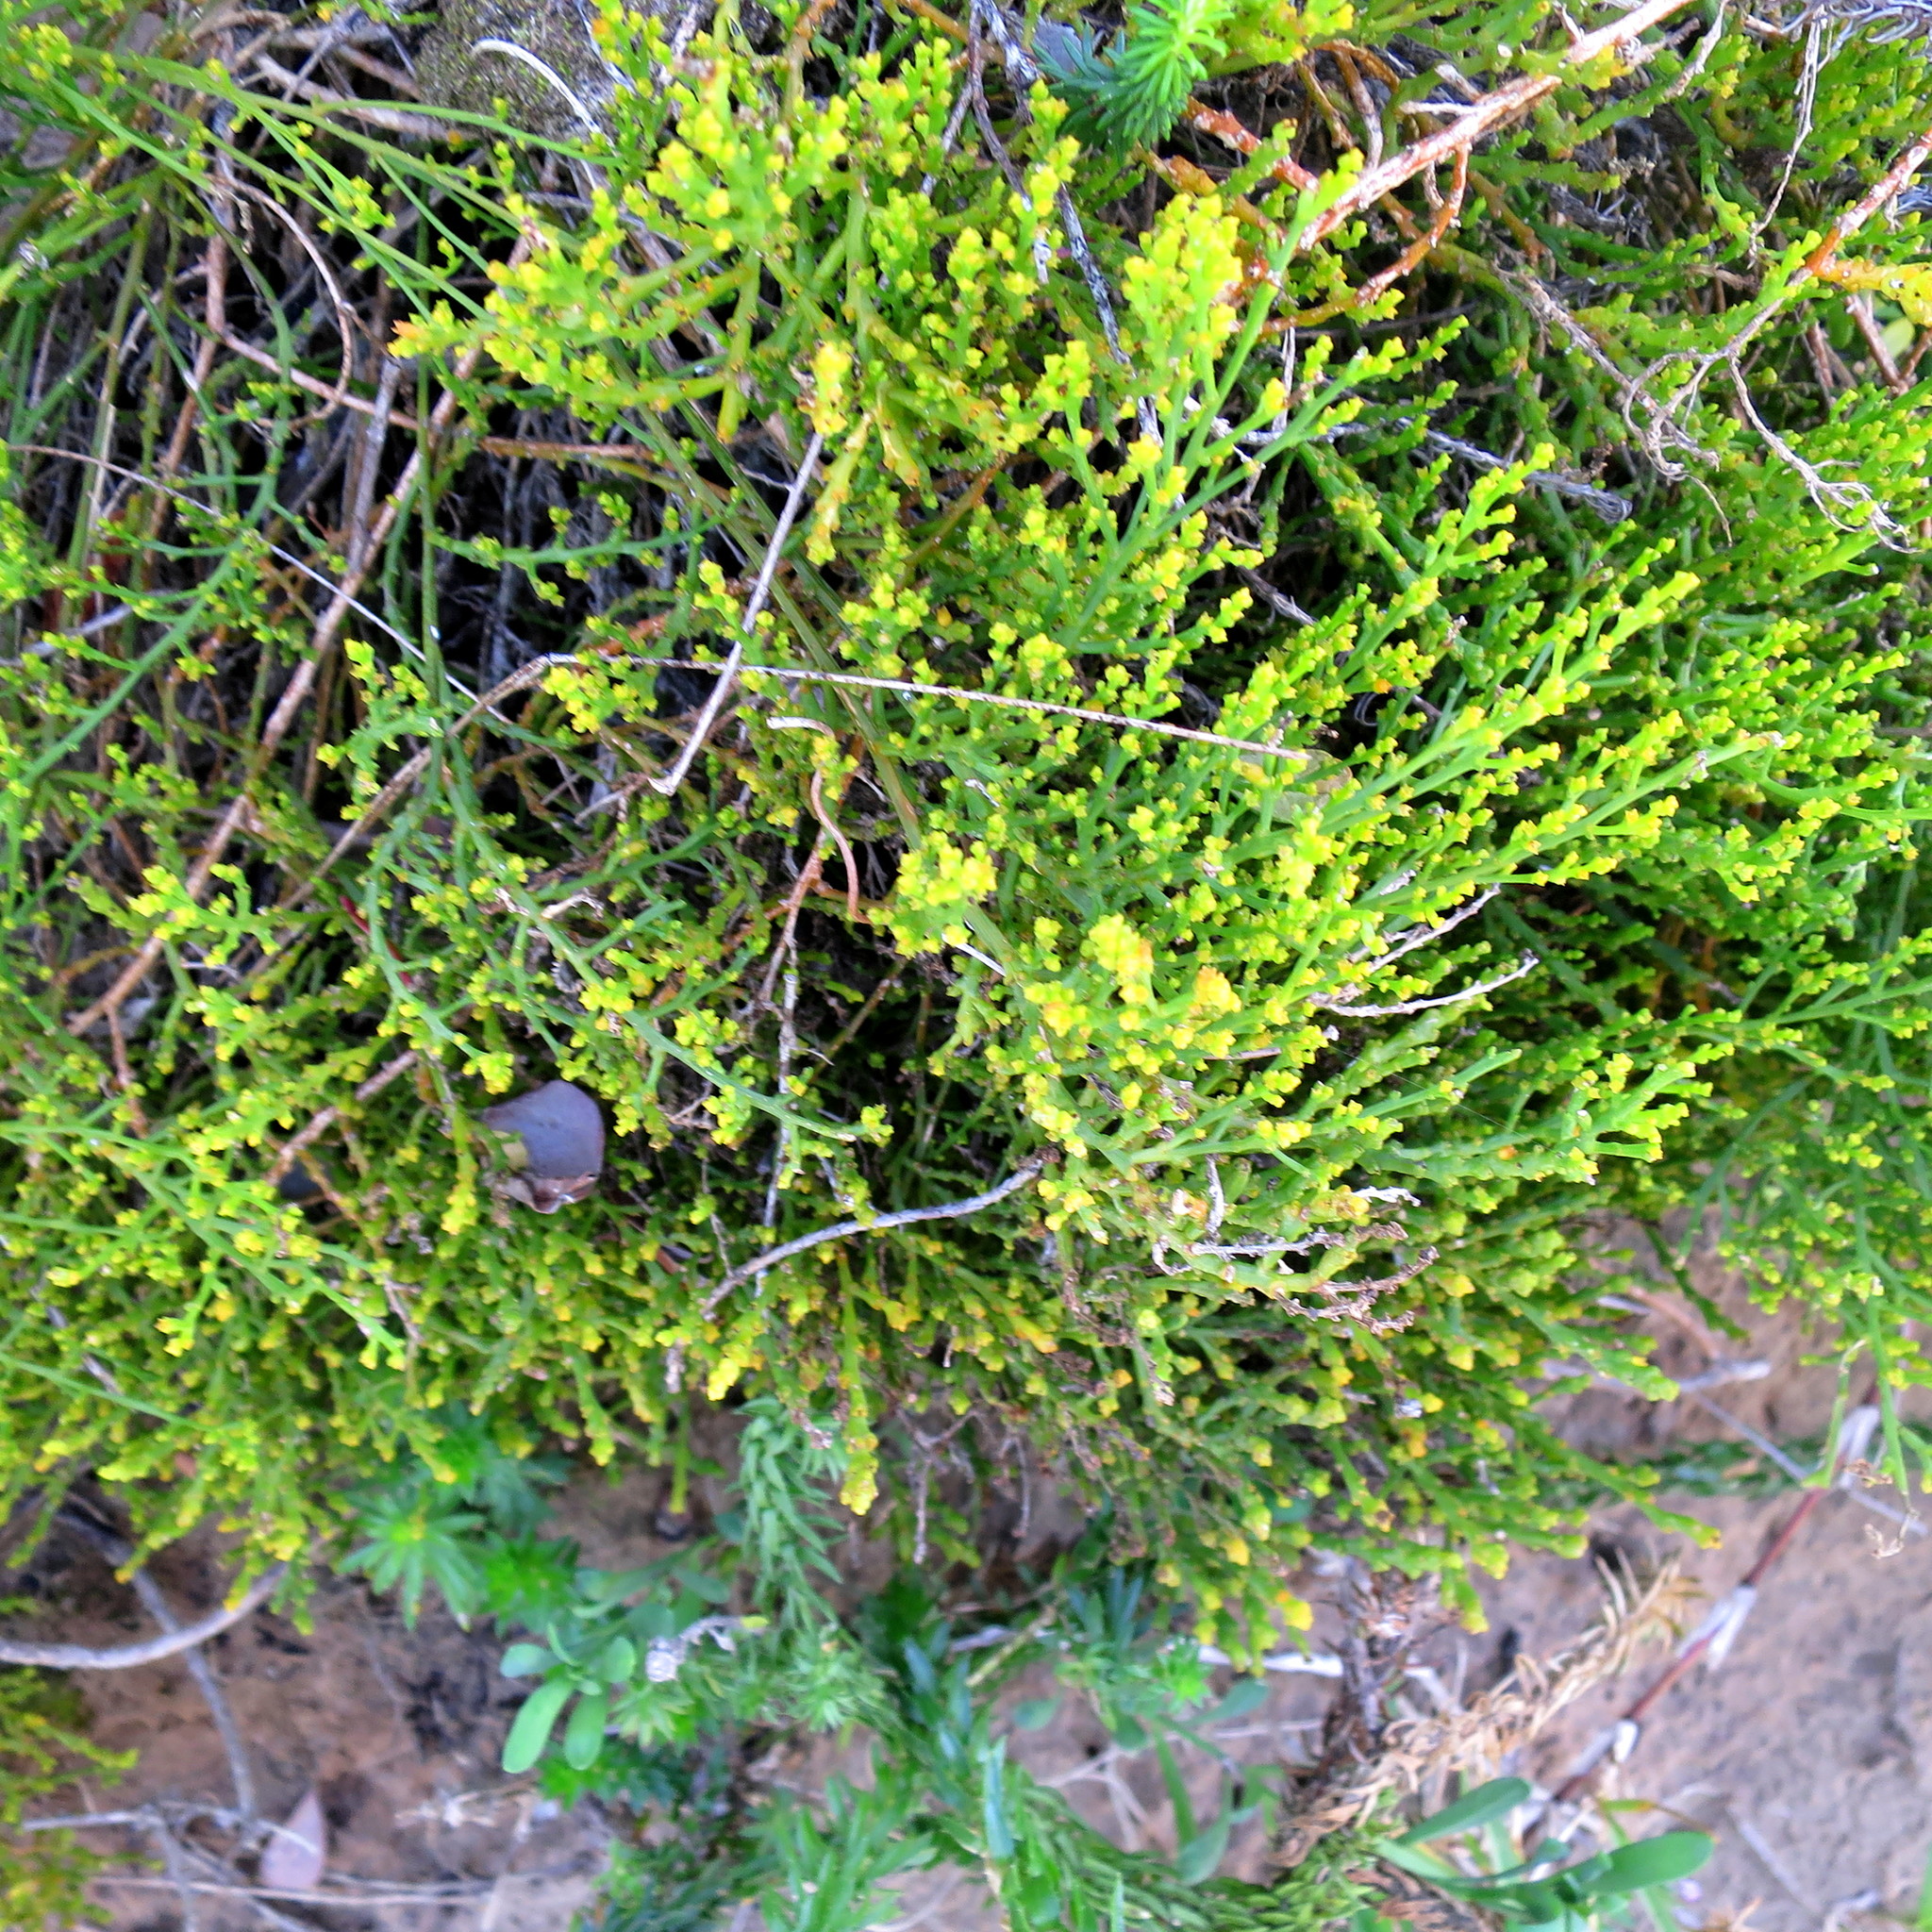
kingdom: Plantae
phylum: Tracheophyta
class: Magnoliopsida
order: Santalales
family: Thesiaceae
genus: Thesium
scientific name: Thesium fragile
